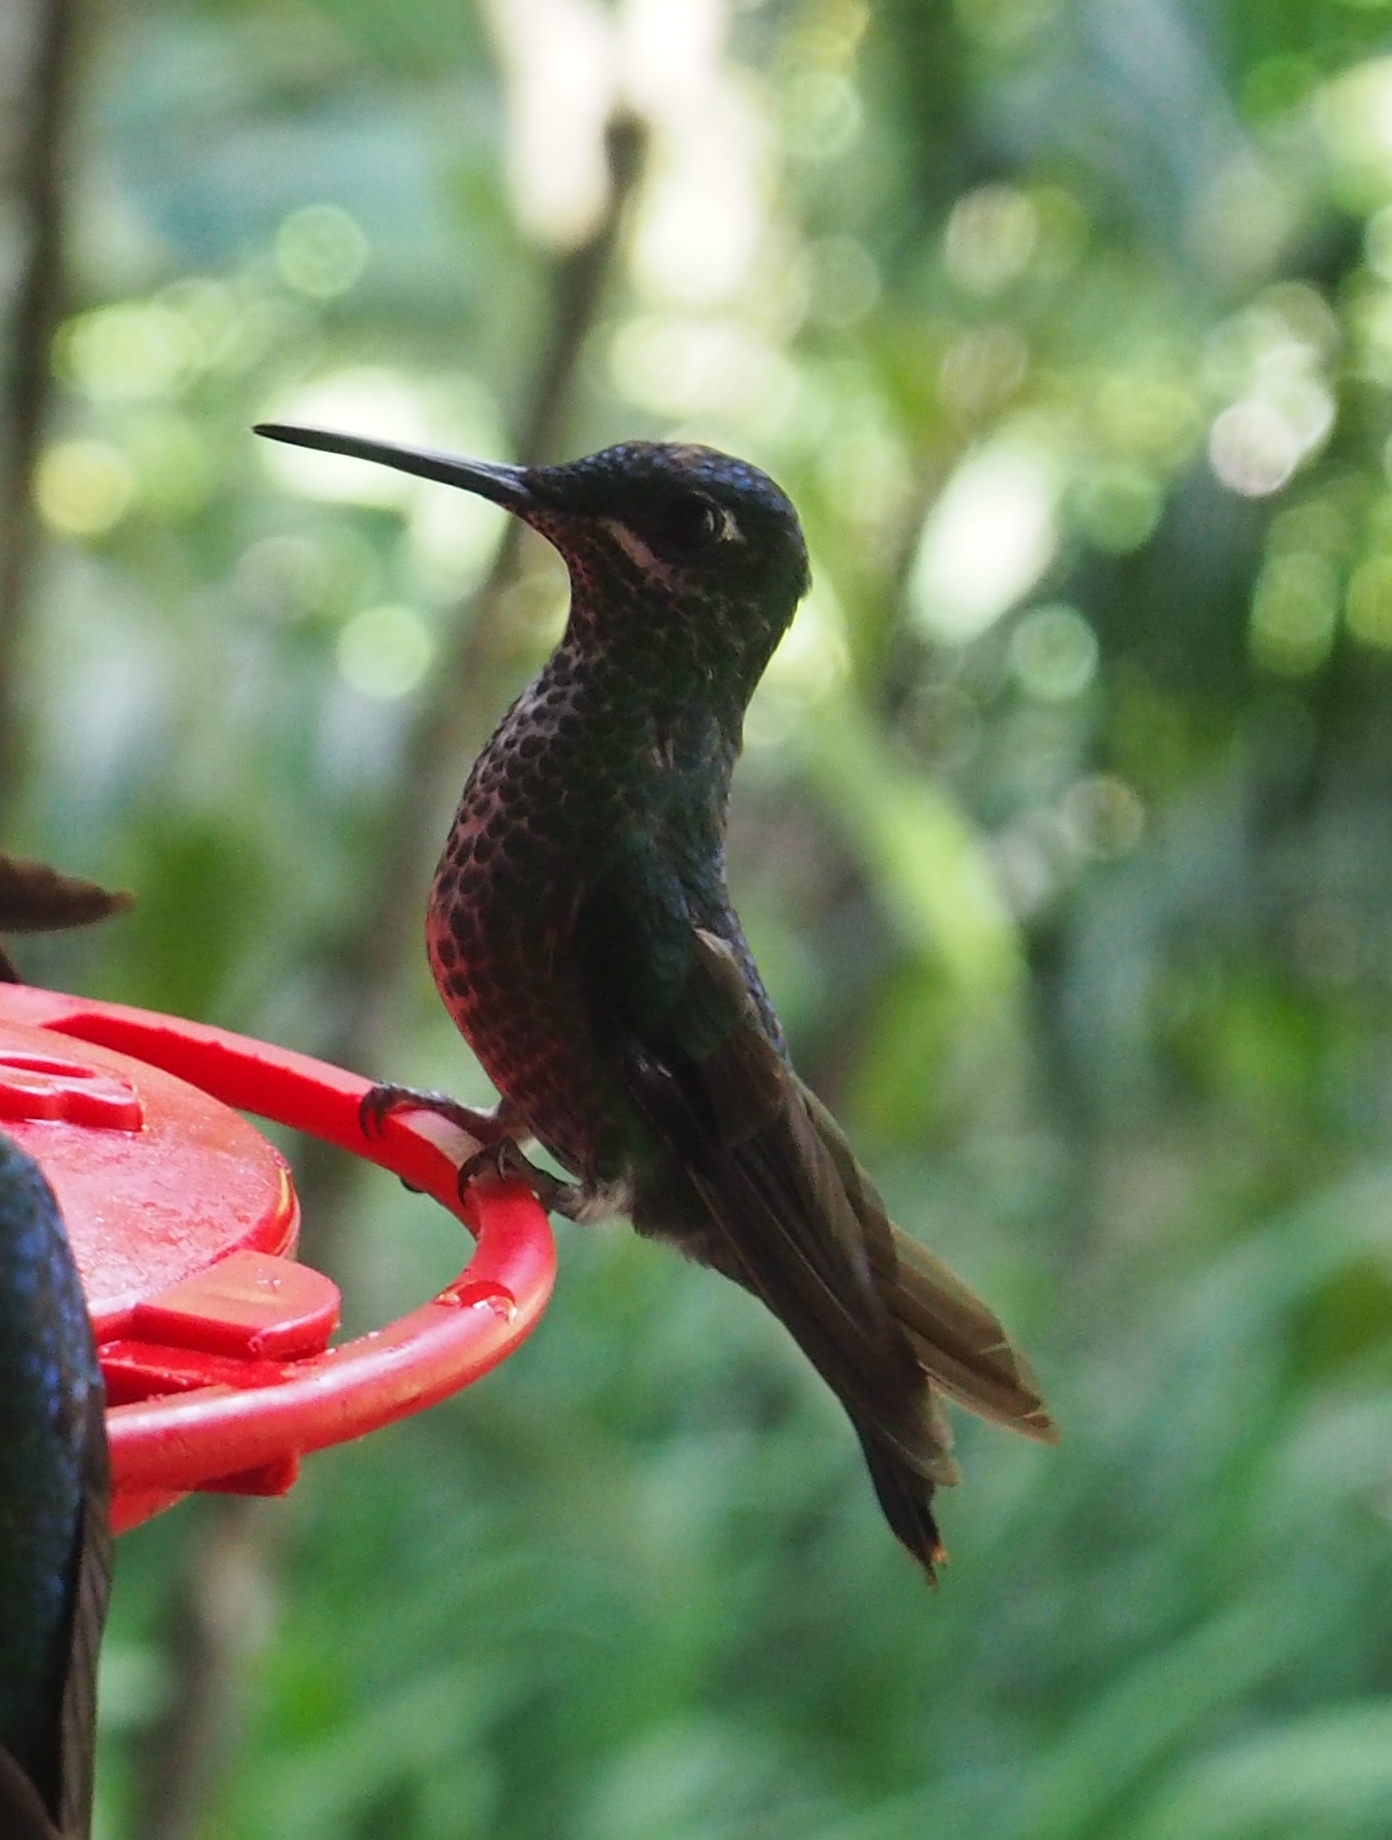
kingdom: Animalia
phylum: Chordata
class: Aves
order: Apodiformes
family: Trochilidae
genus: Heliodoxa
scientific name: Heliodoxa jacula
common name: Green-crowned brilliant
